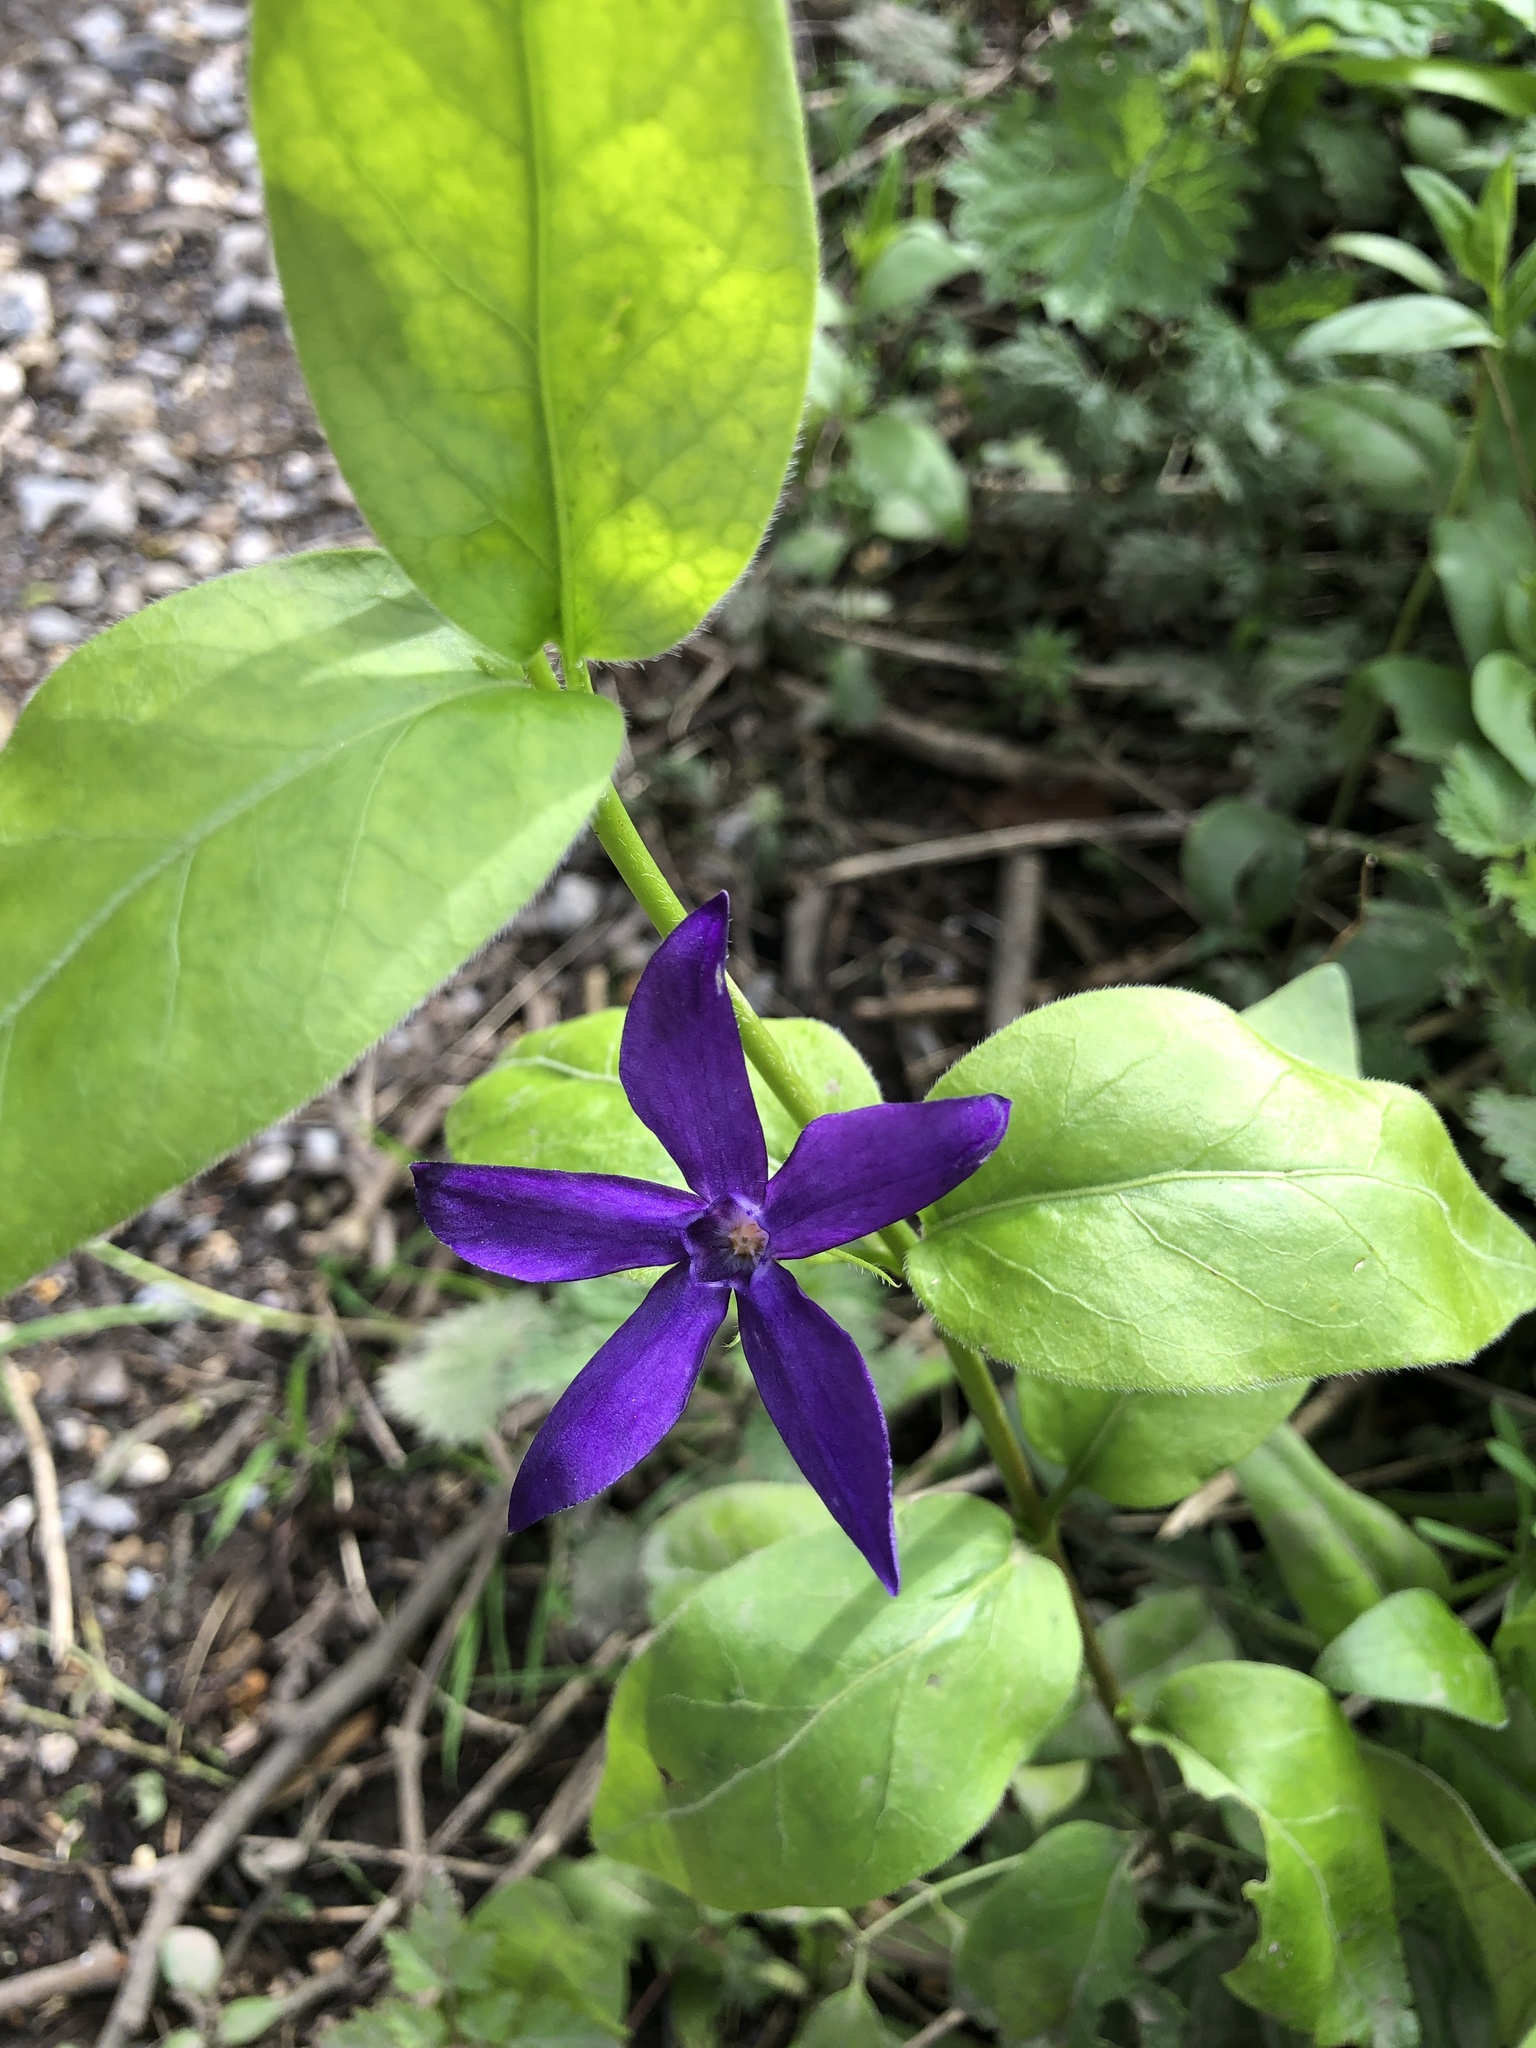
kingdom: Plantae
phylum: Tracheophyta
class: Magnoliopsida
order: Gentianales
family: Apocynaceae
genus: Vinca
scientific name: Vinca major
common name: Greater periwinkle
